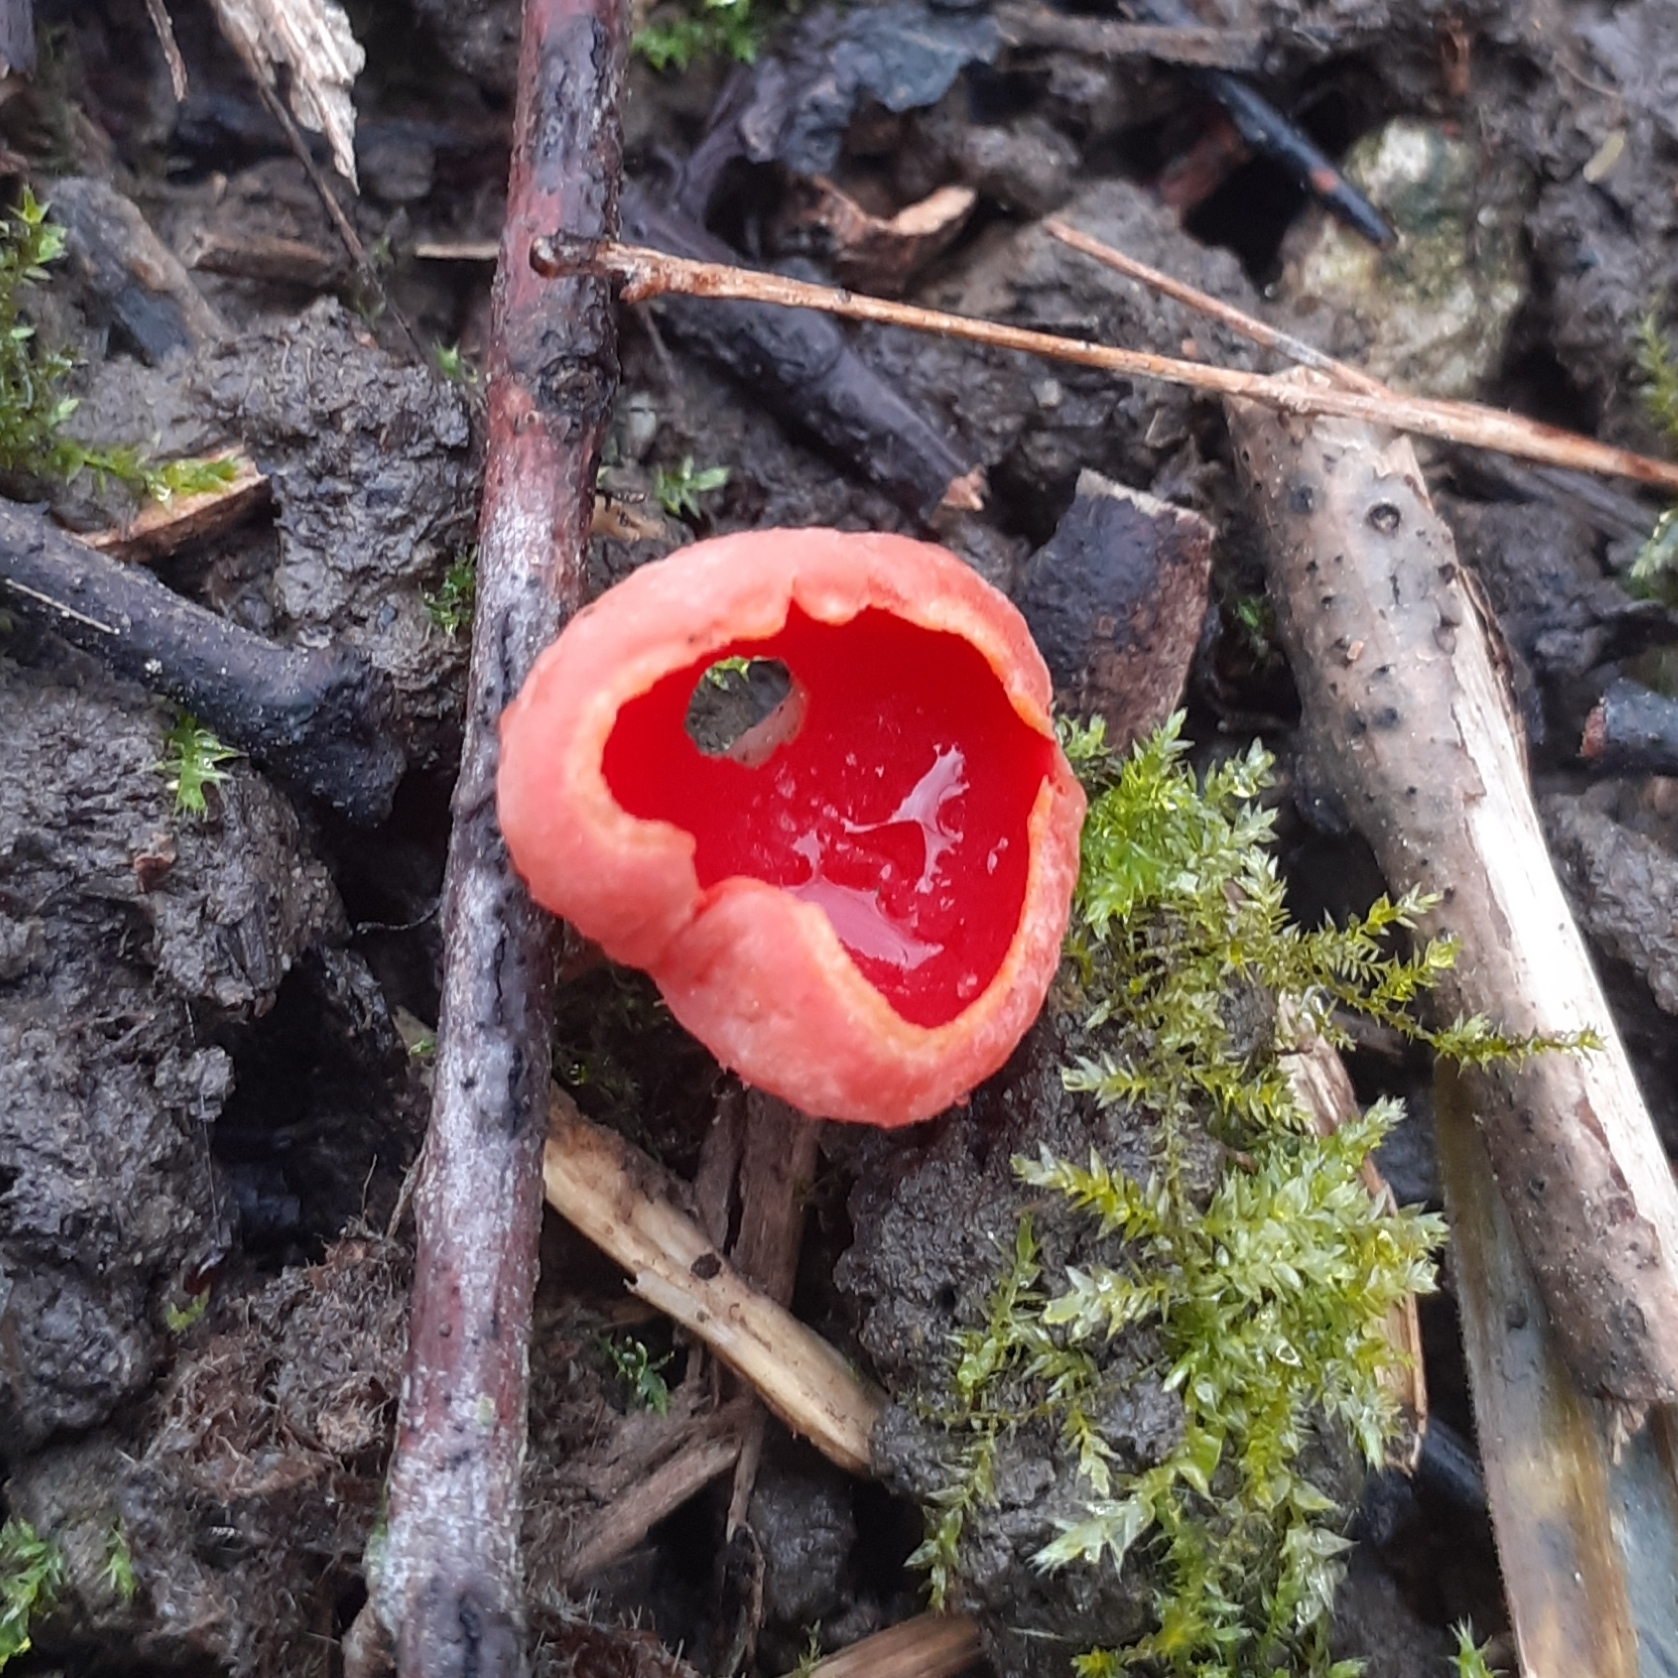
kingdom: Fungi
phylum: Ascomycota
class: Pezizomycetes
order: Pezizales
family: Sarcoscyphaceae
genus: Sarcoscypha
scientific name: Sarcoscypha
